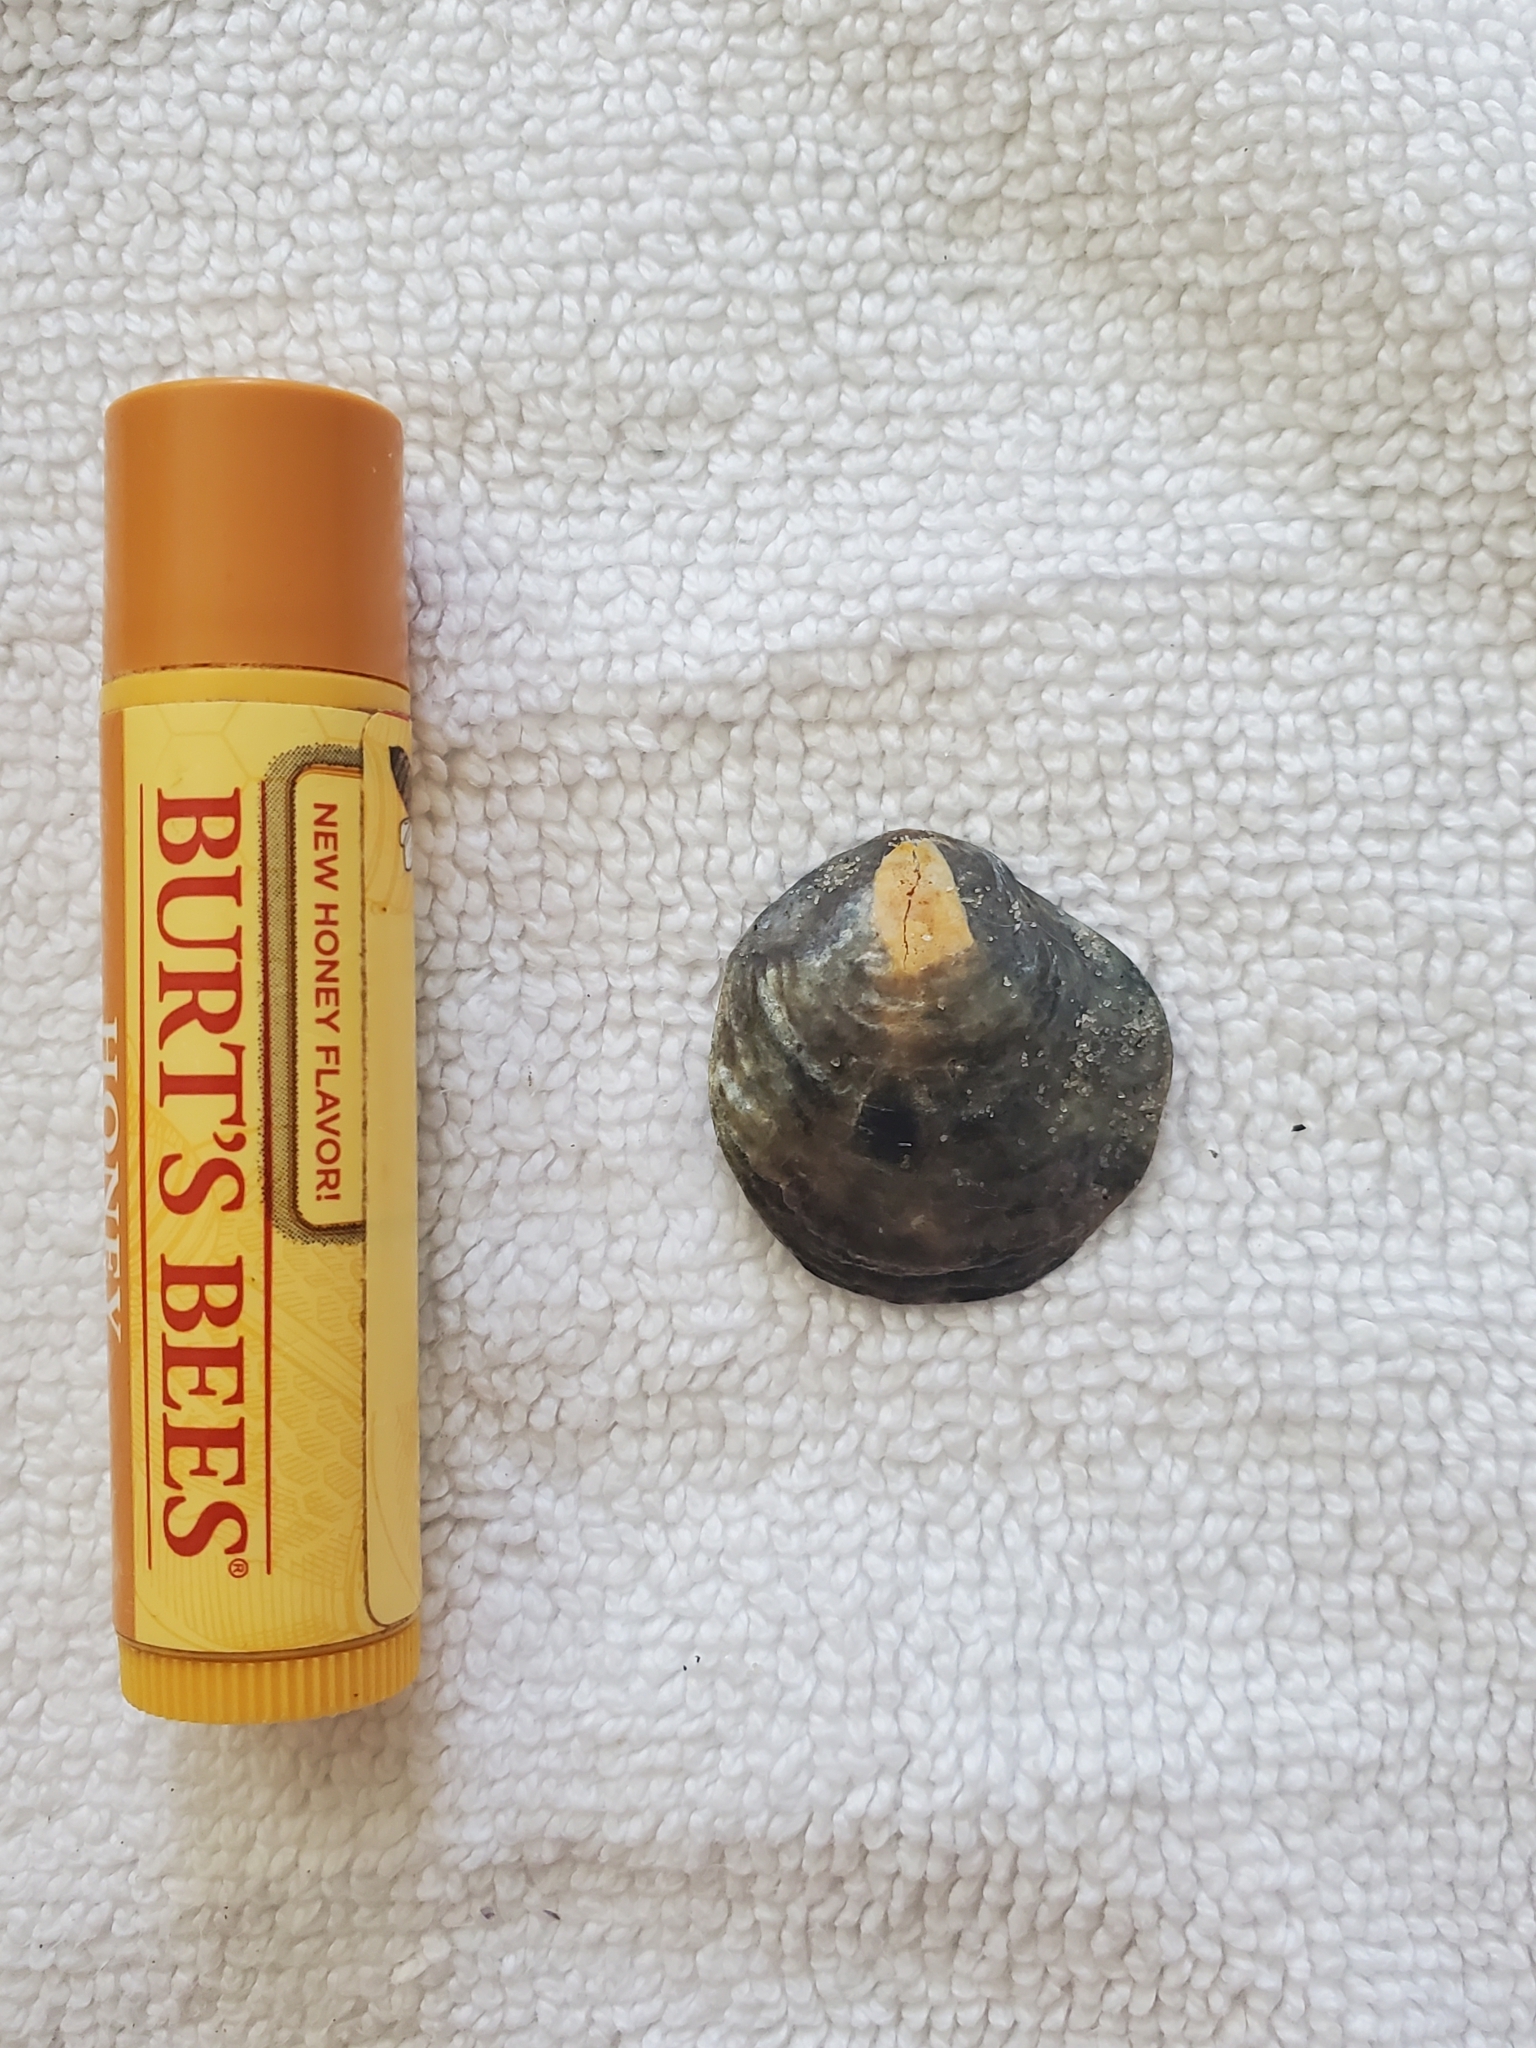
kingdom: Animalia
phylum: Mollusca
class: Bivalvia
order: Pectinida
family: Anomiidae
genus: Anomia
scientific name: Anomia simplex
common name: Common jingle shell
